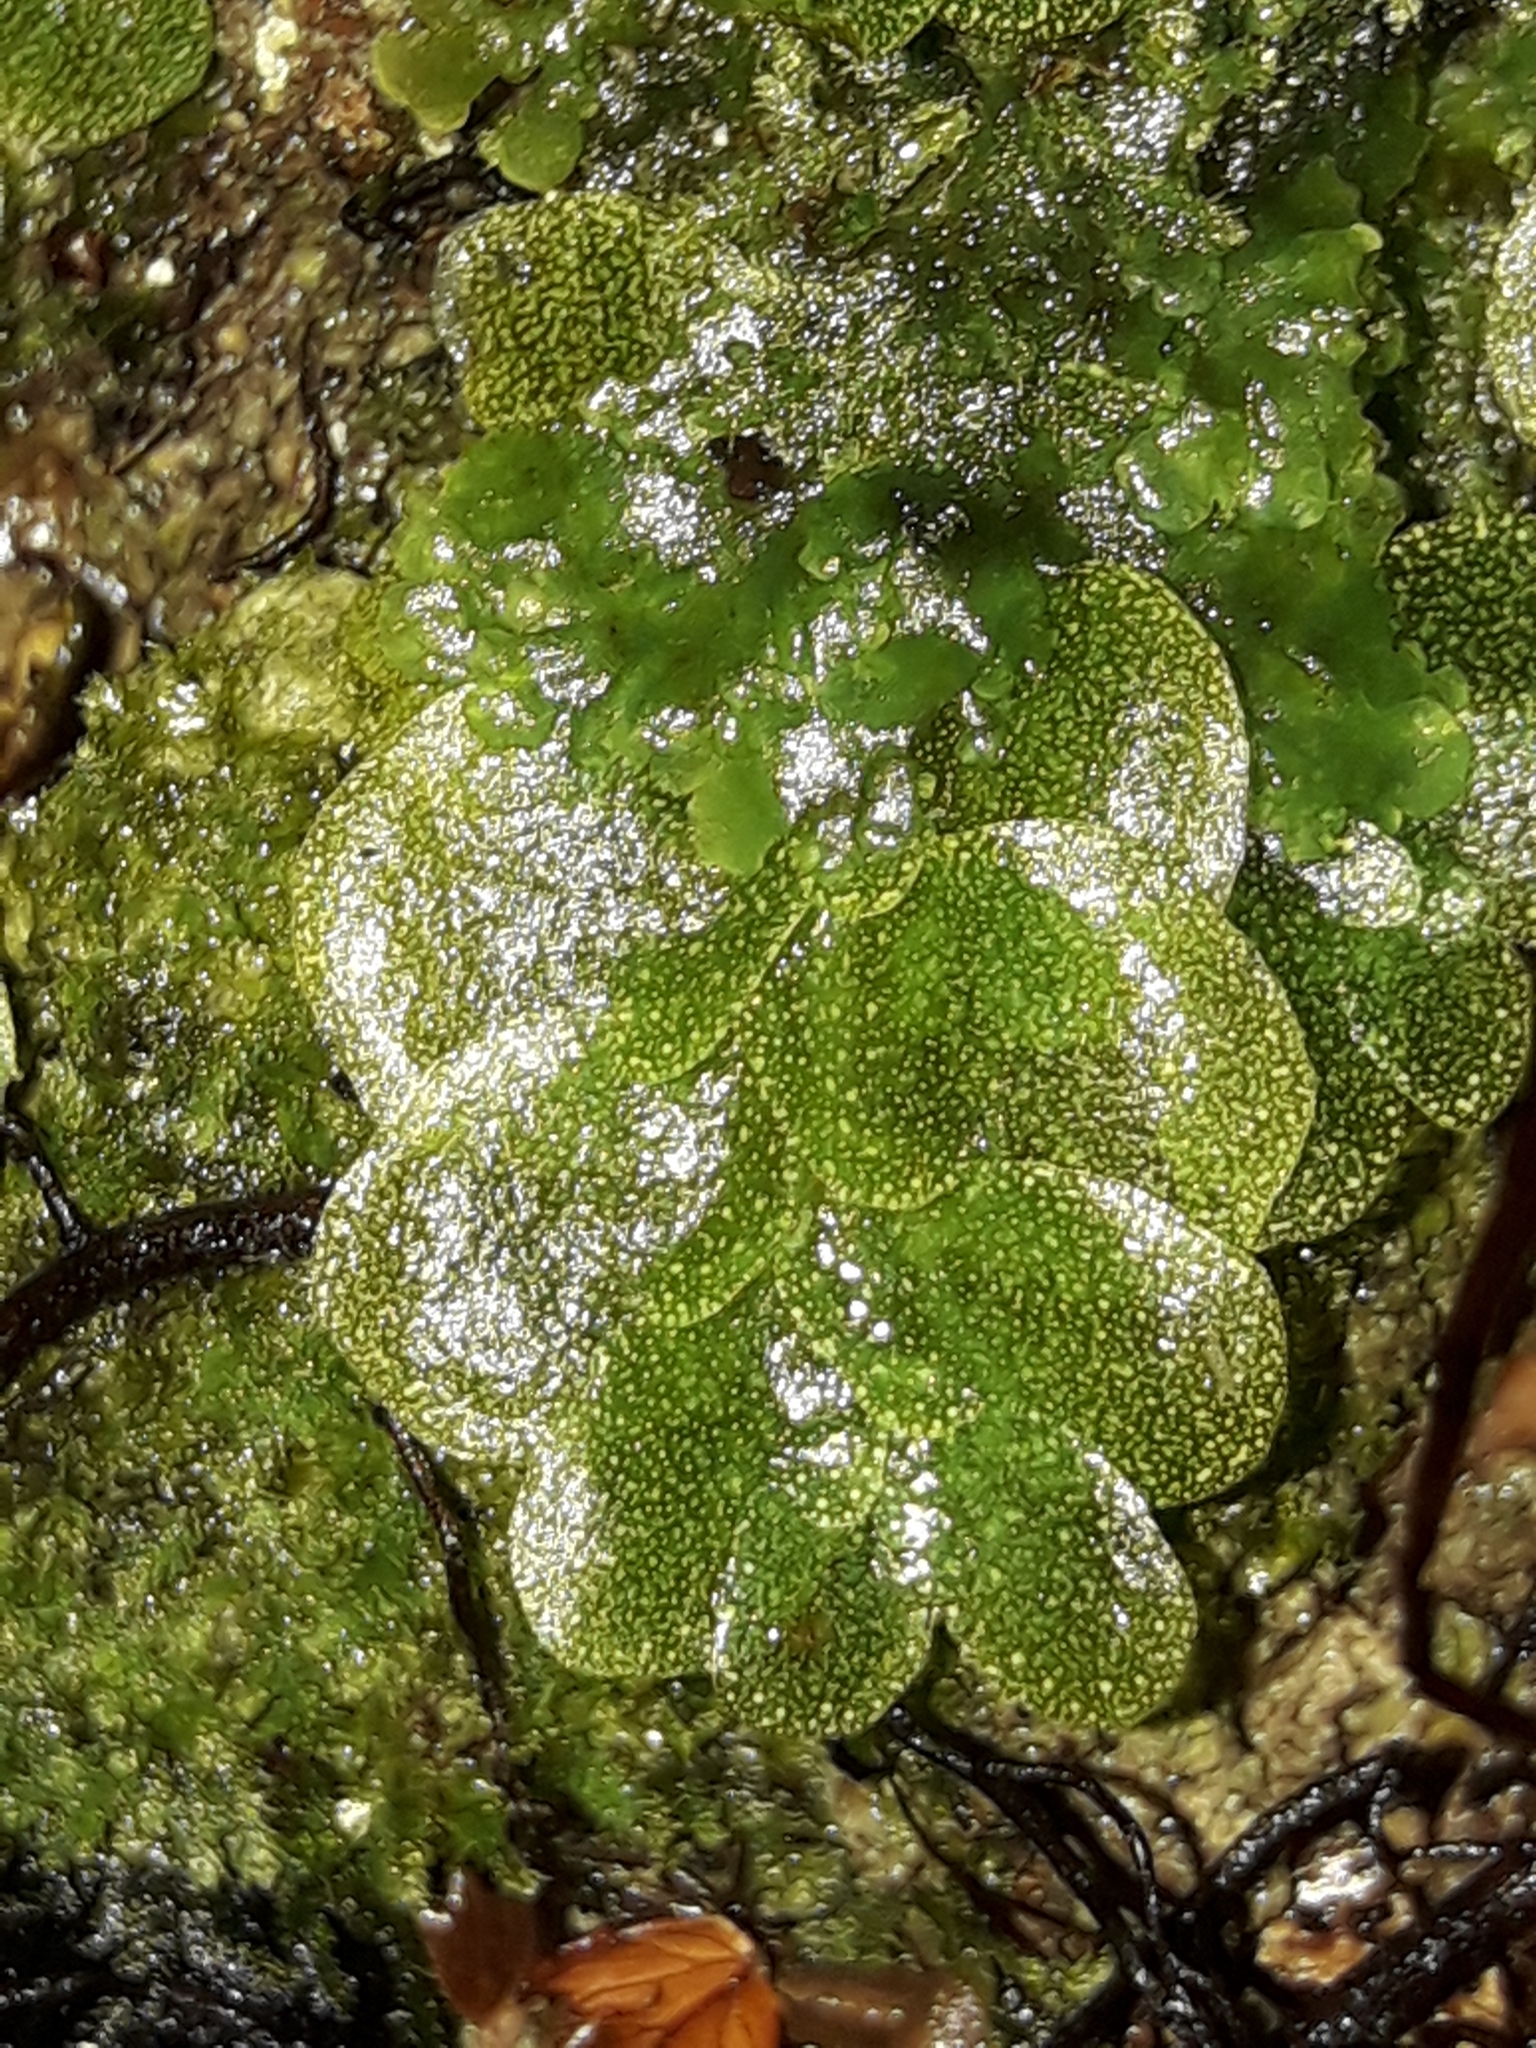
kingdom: Plantae
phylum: Marchantiophyta
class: Haplomitriopsida
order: Treubiales
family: Treubiaceae
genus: Treubia
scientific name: Treubia lacunosa
